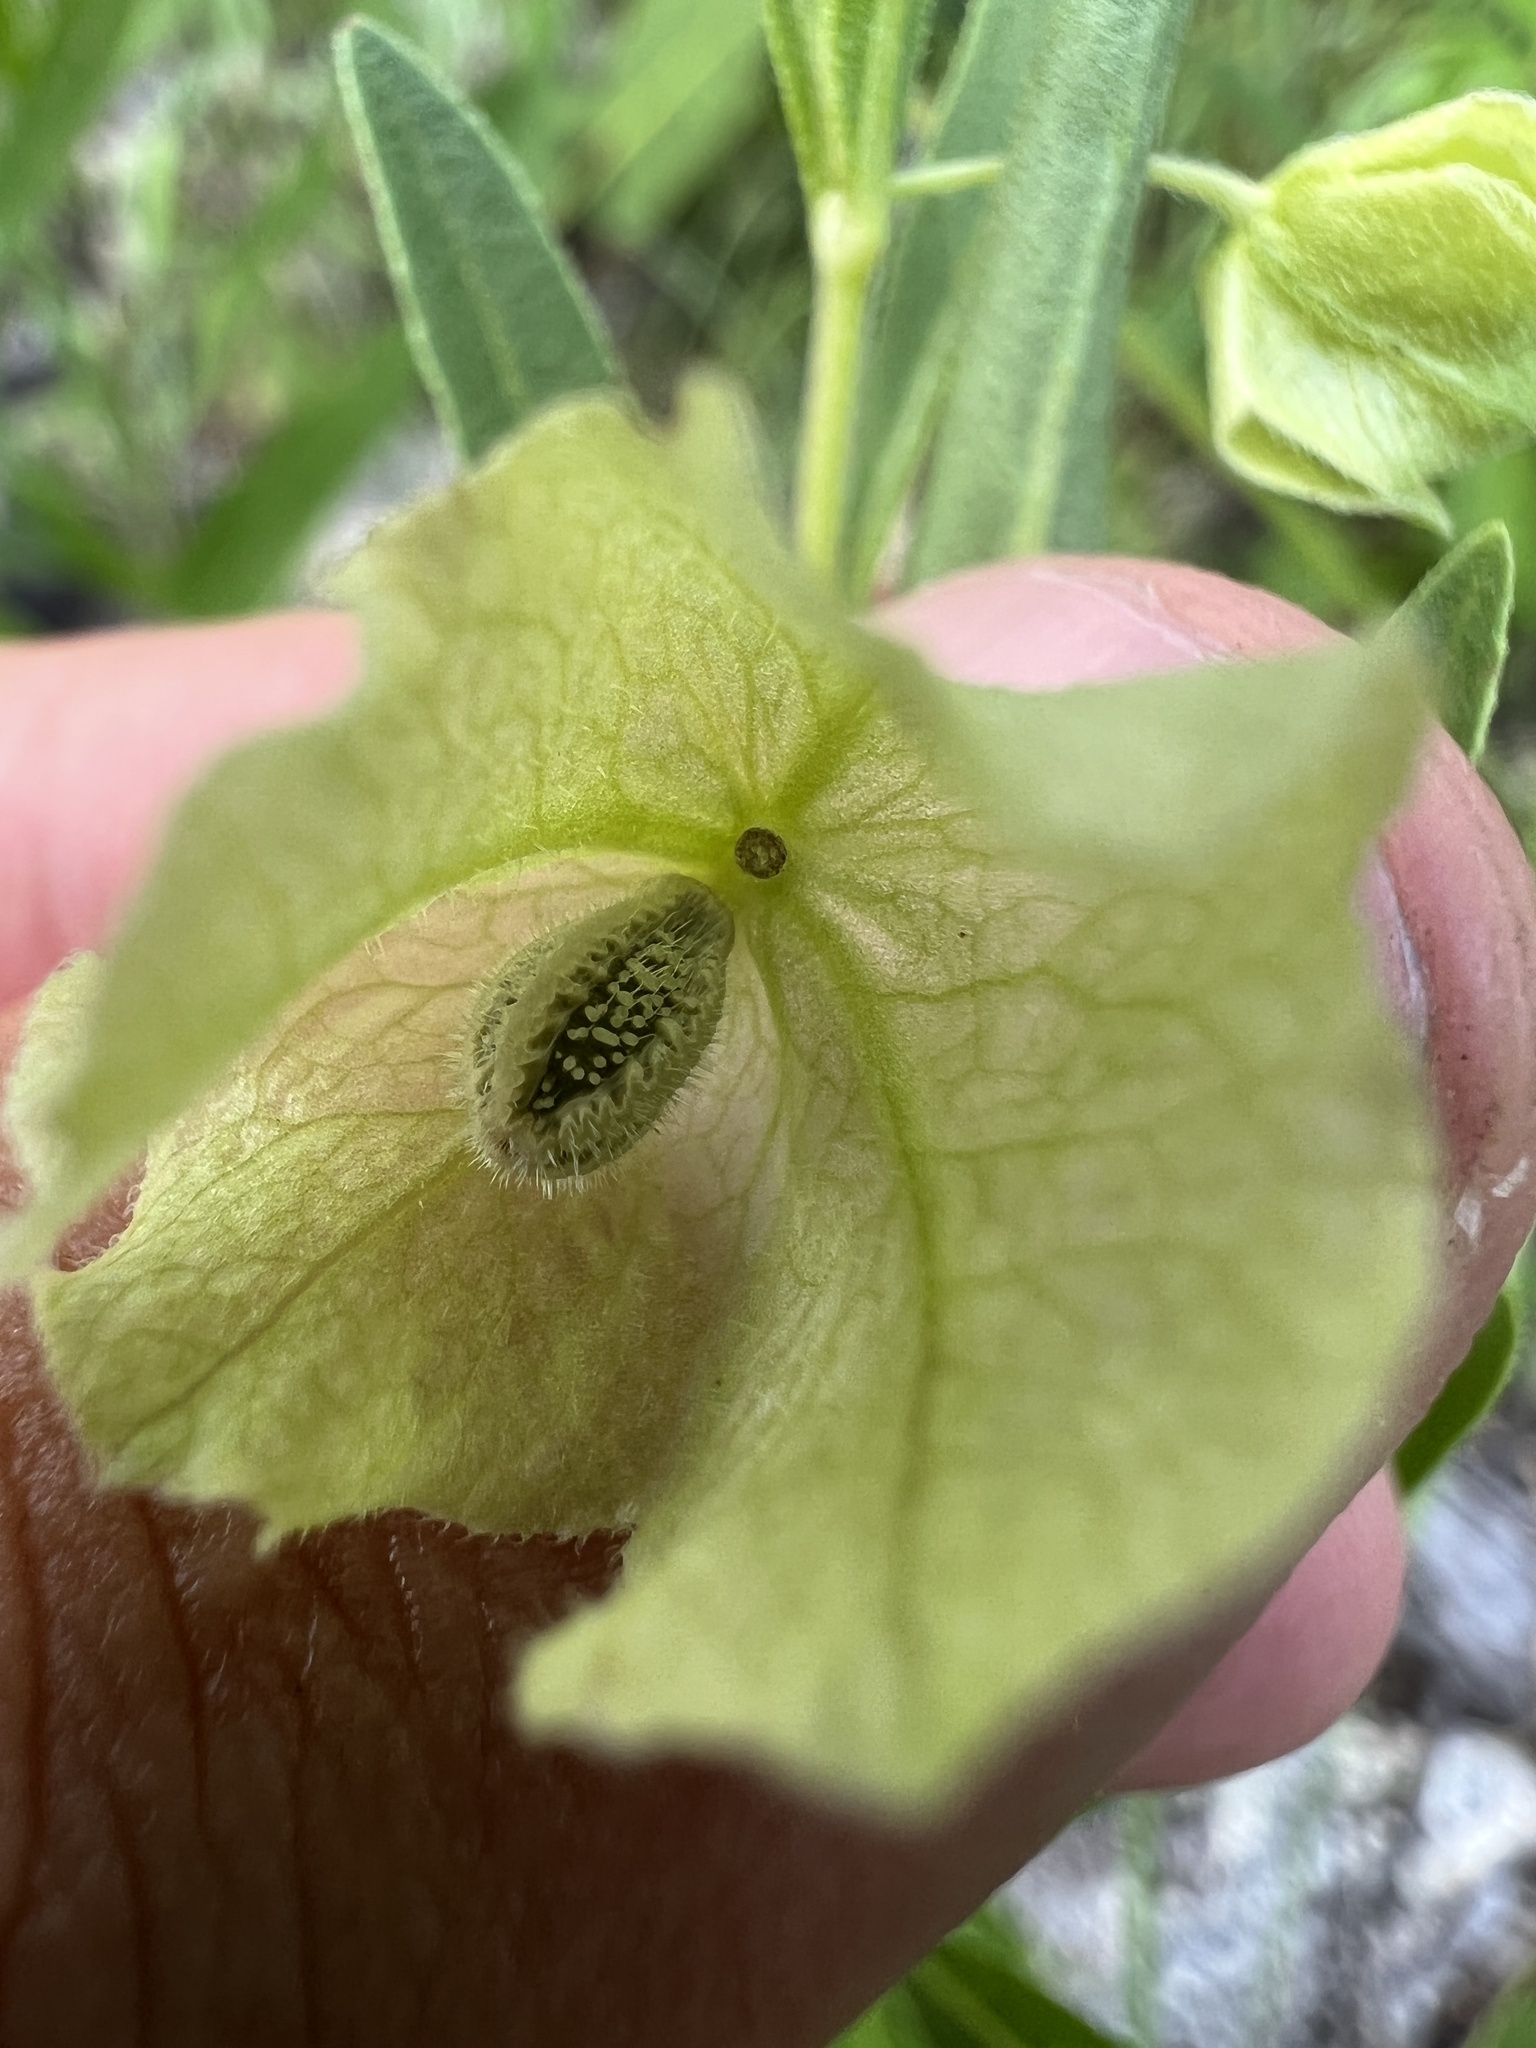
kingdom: Plantae
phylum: Tracheophyta
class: Magnoliopsida
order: Caryophyllales
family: Nyctaginaceae
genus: Mirabilis
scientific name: Mirabilis albida
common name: Hairy four-o'clock
